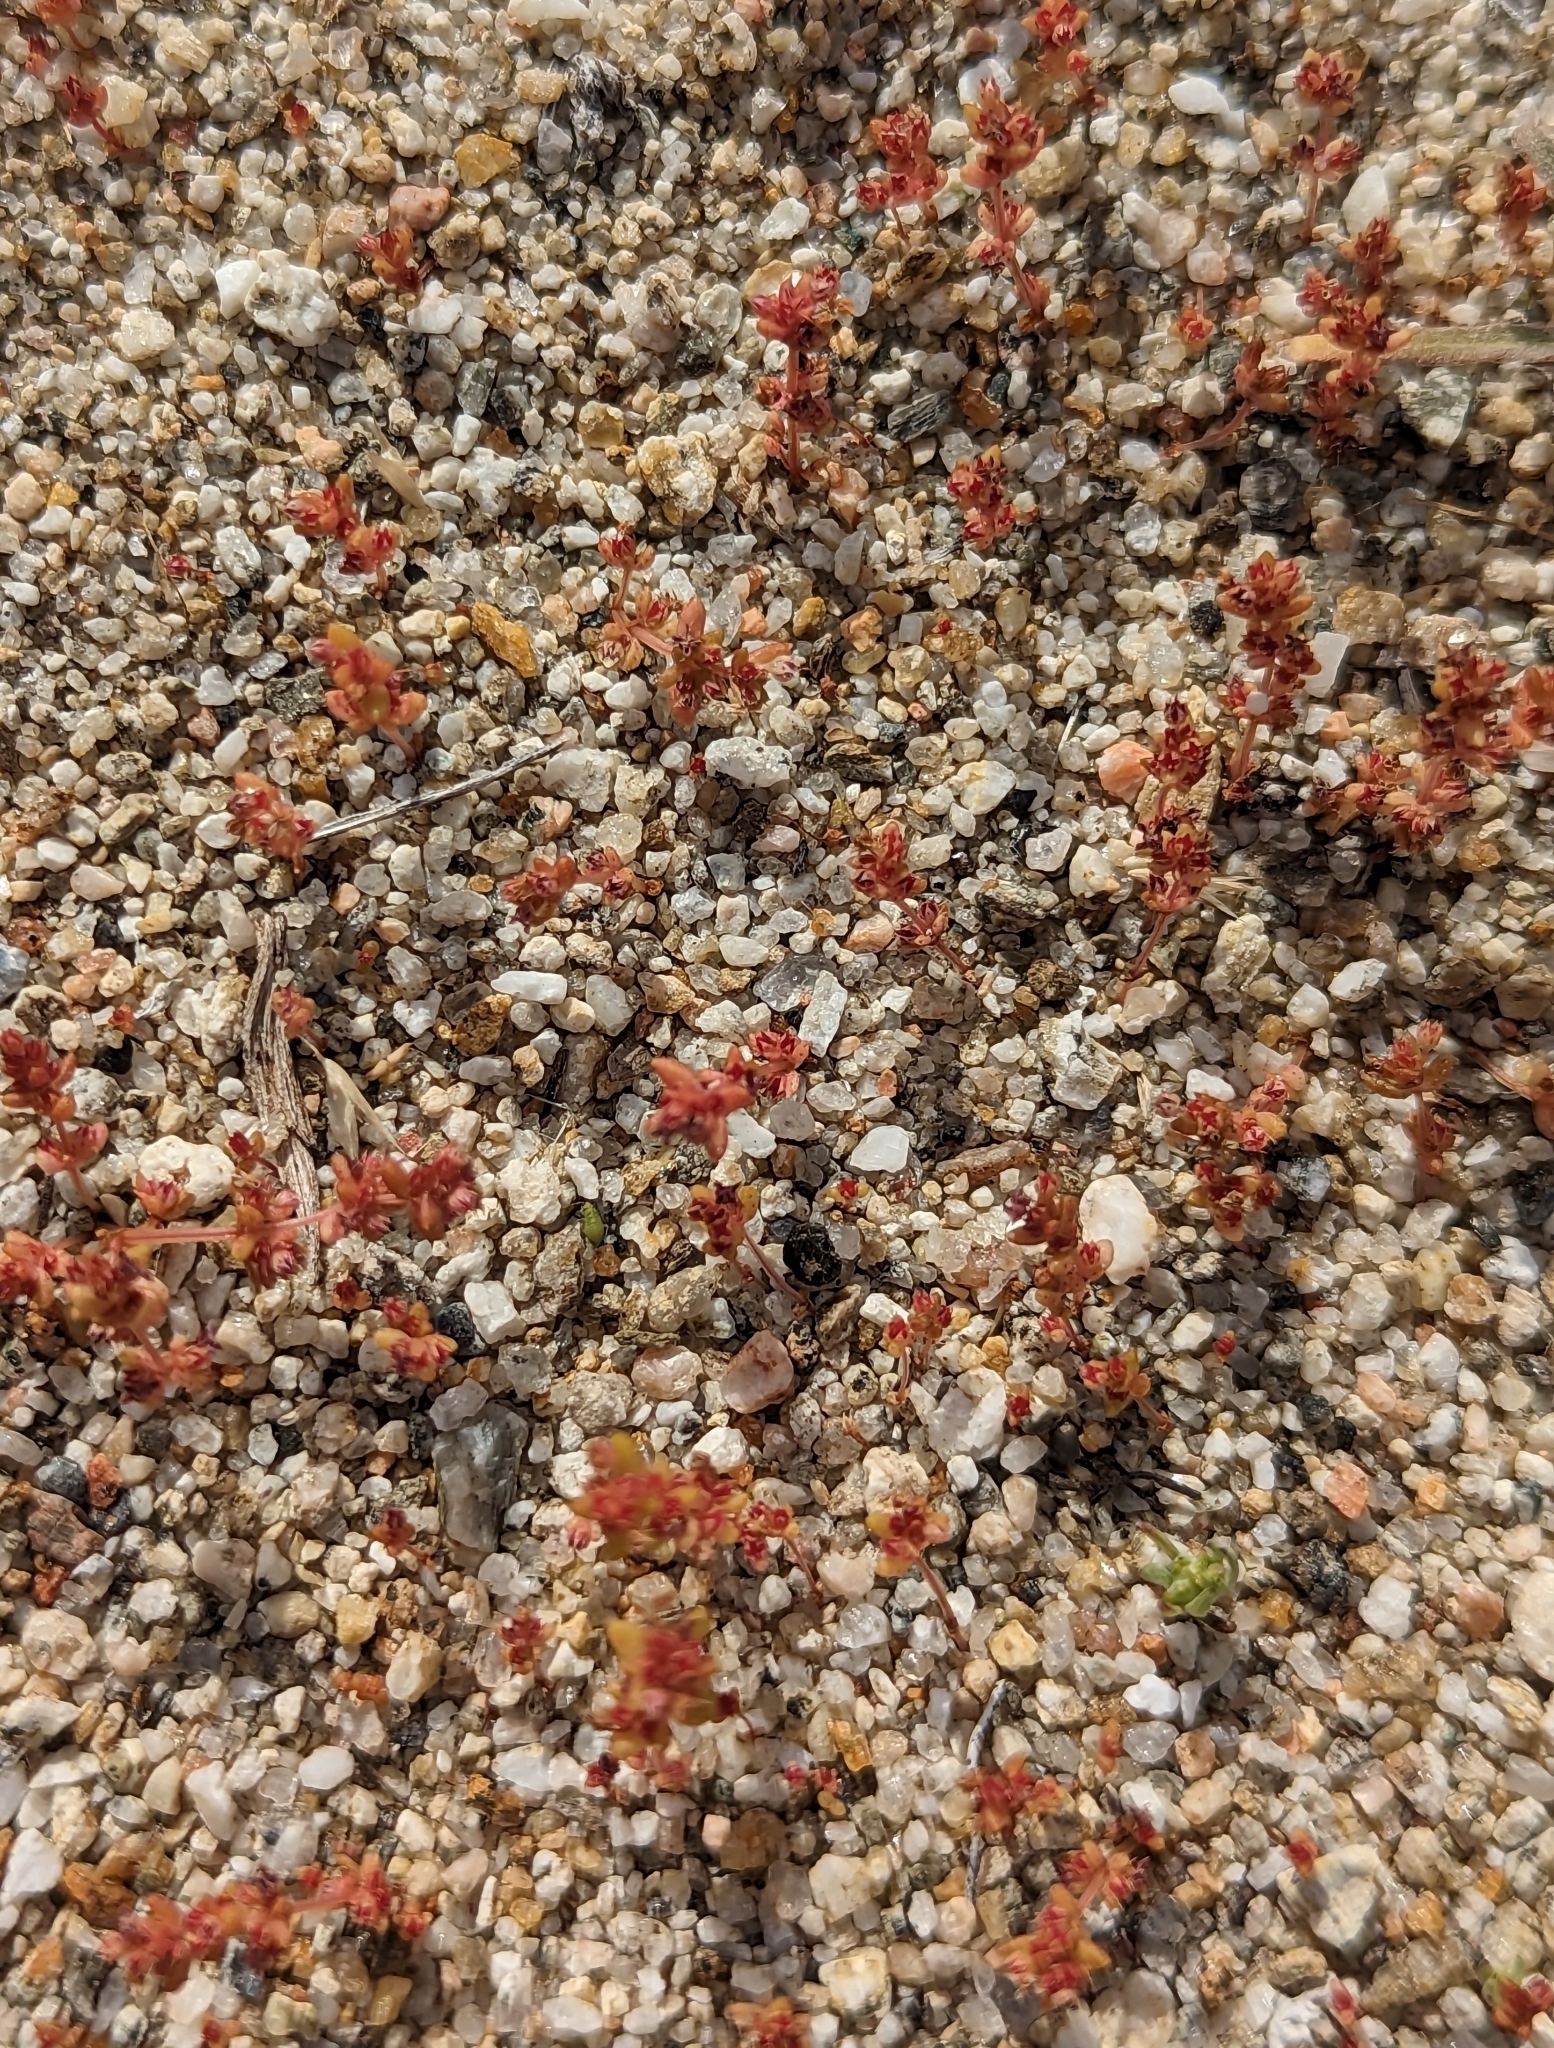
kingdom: Plantae
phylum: Tracheophyta
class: Magnoliopsida
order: Saxifragales
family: Crassulaceae
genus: Crassula
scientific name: Crassula connata
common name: Erect pygmyweed
